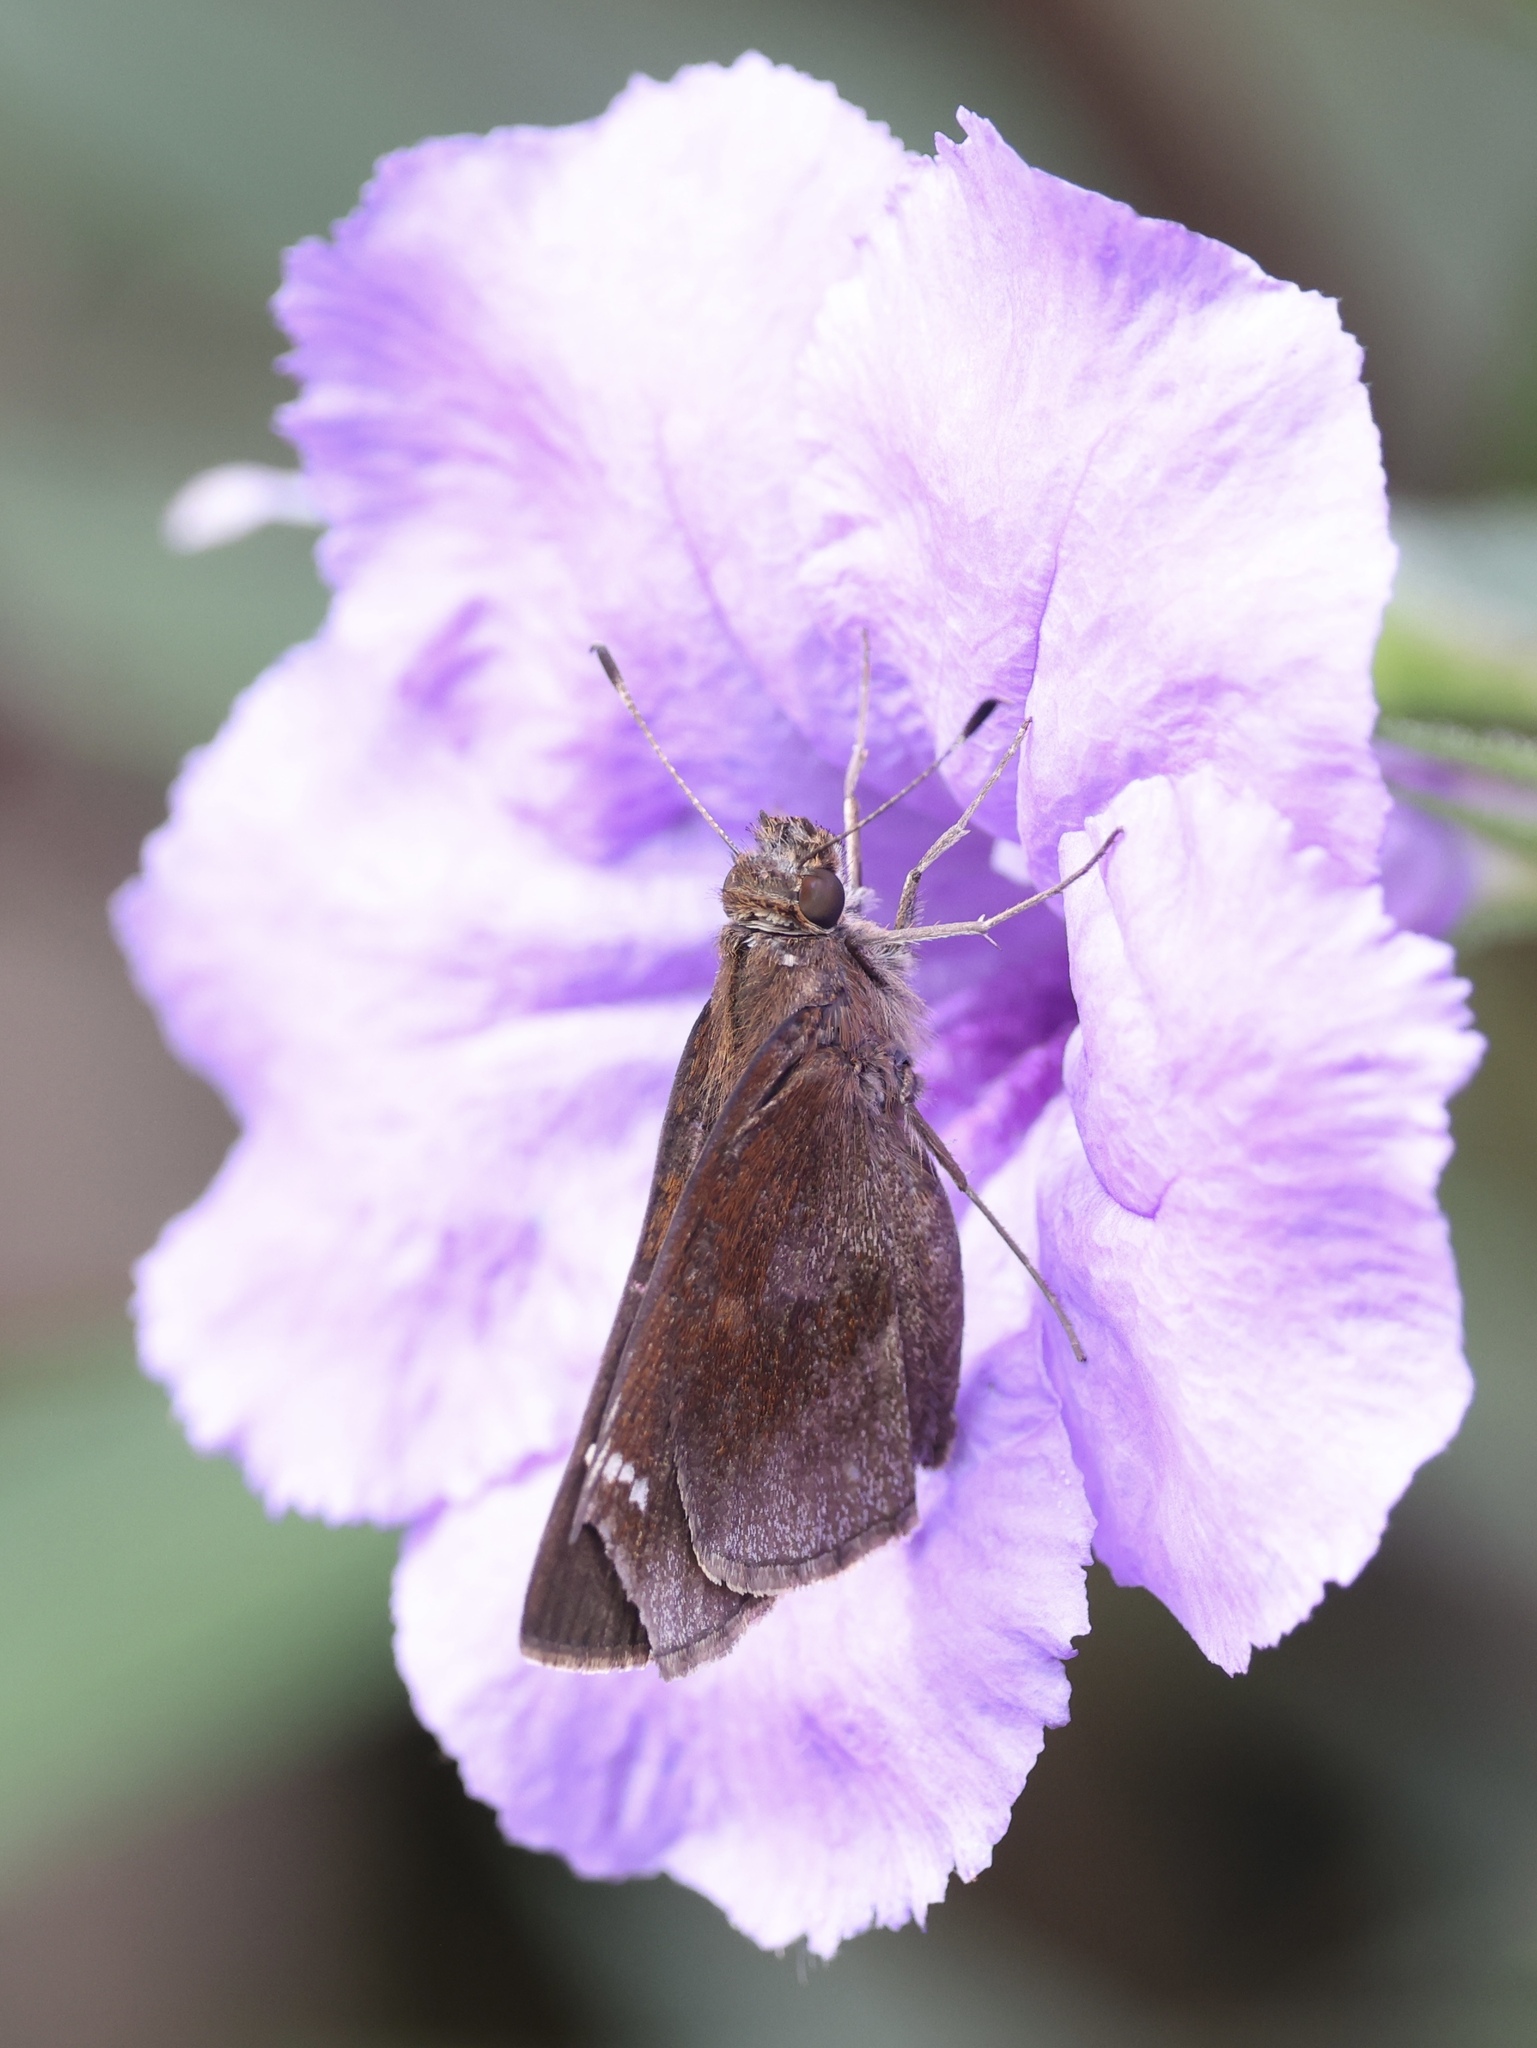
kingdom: Animalia
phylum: Arthropoda
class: Insecta
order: Lepidoptera
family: Hesperiidae
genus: Lerema
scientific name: Lerema accius
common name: Clouded skipper
